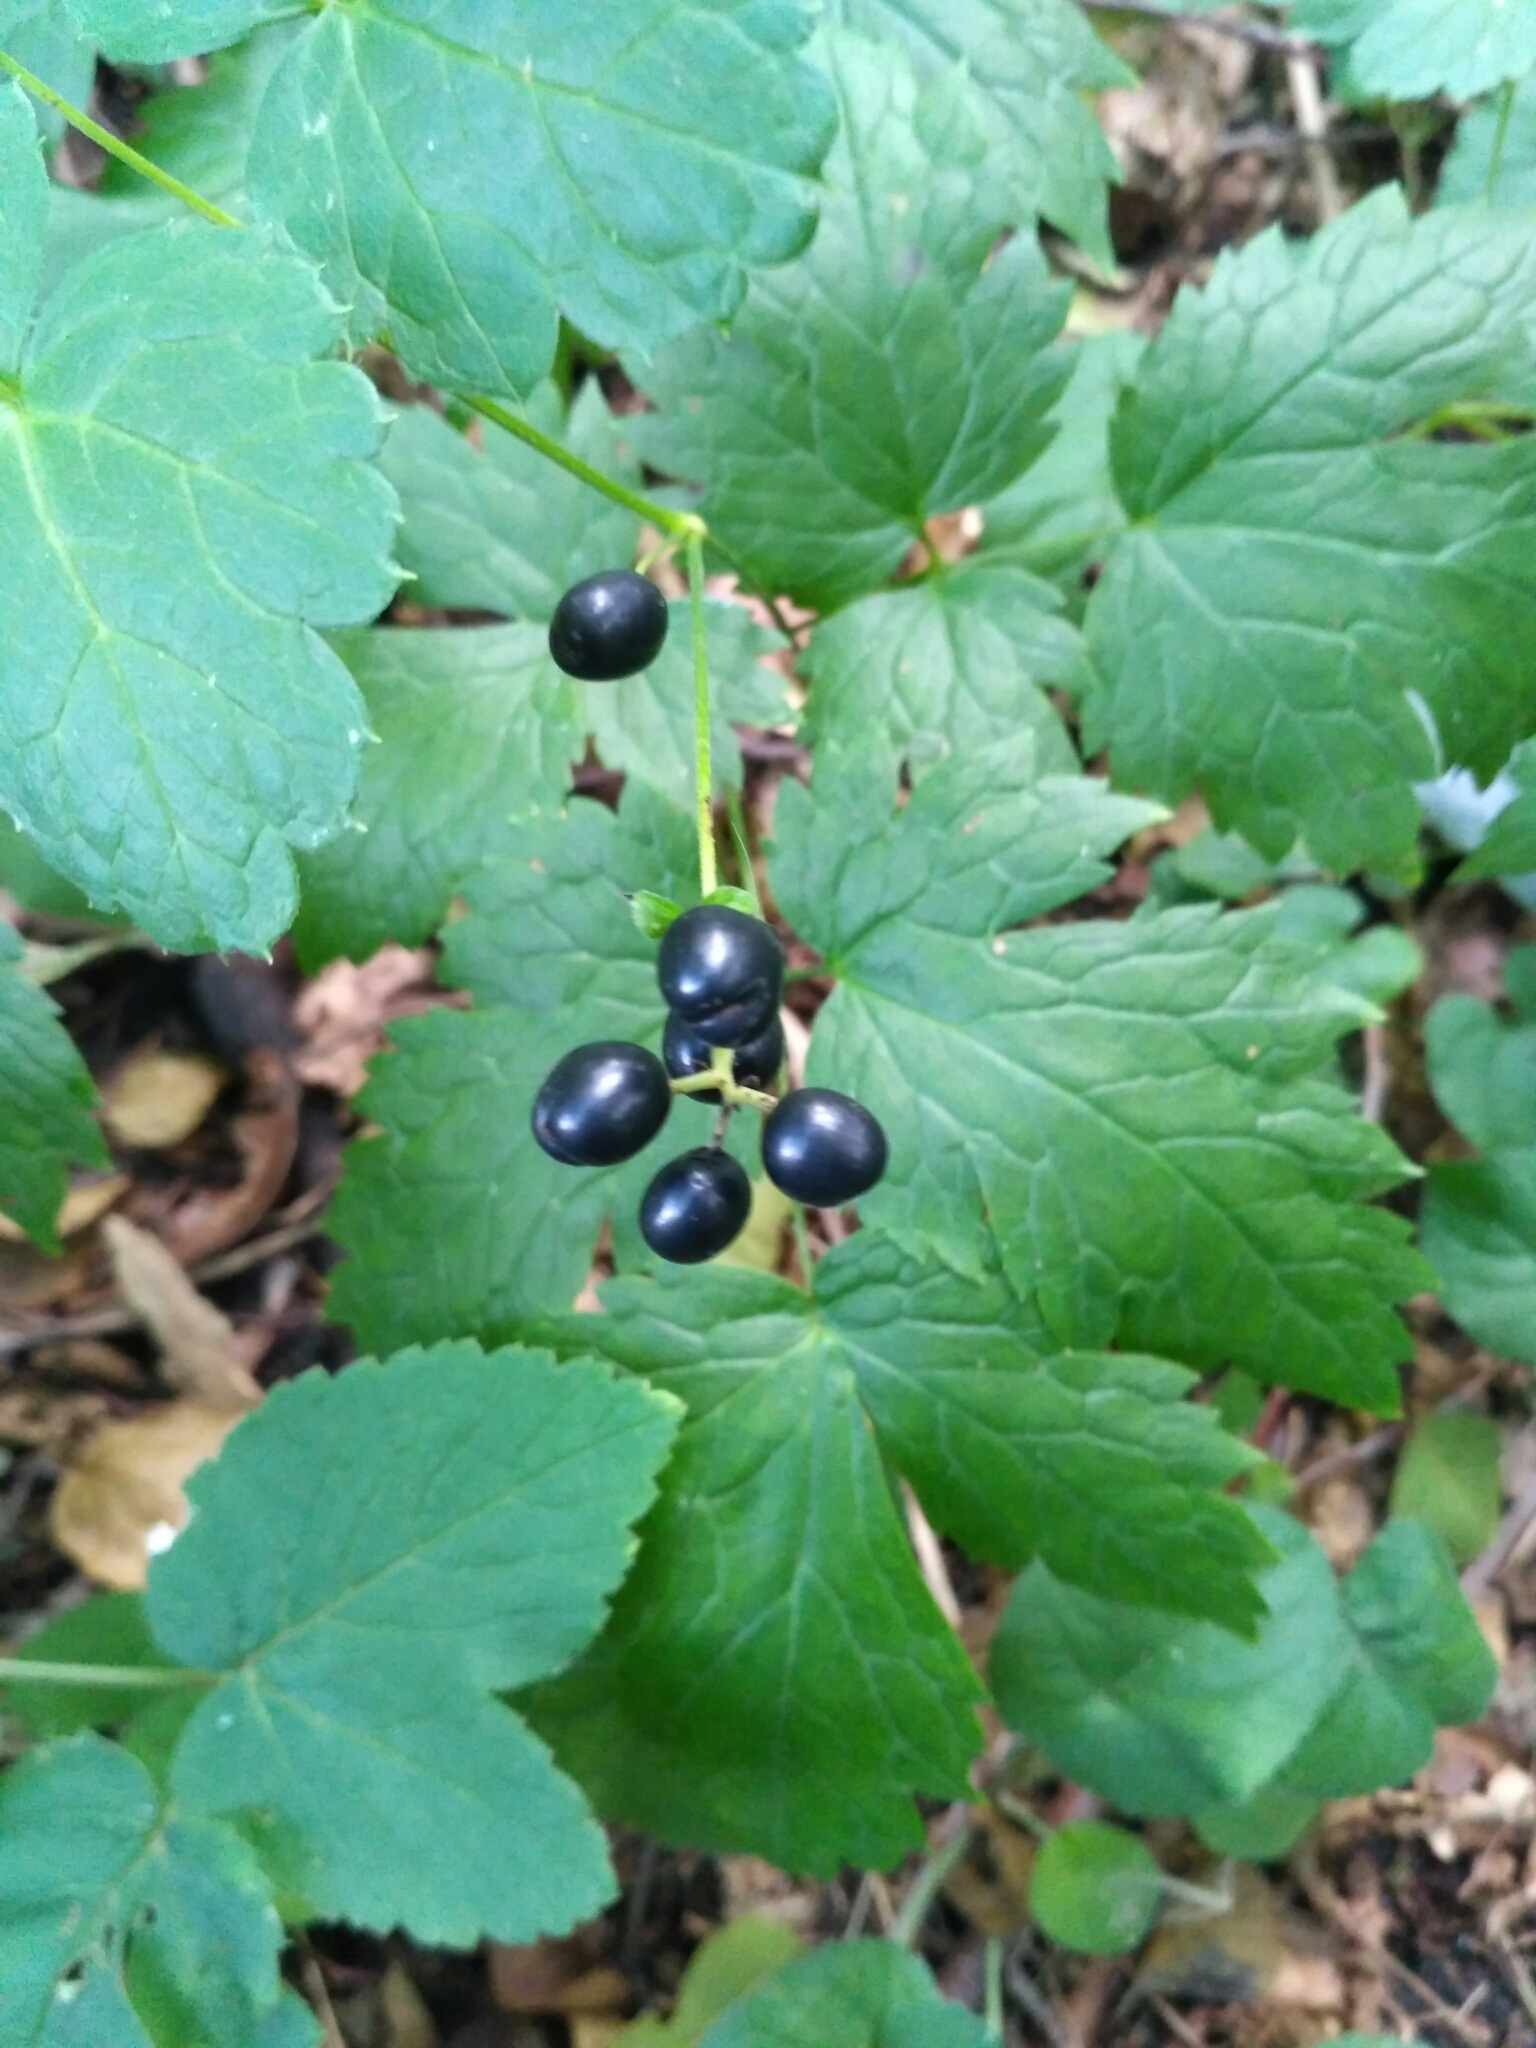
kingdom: Plantae
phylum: Tracheophyta
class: Magnoliopsida
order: Ranunculales
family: Ranunculaceae
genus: Actaea
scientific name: Actaea spicata
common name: Baneberry
